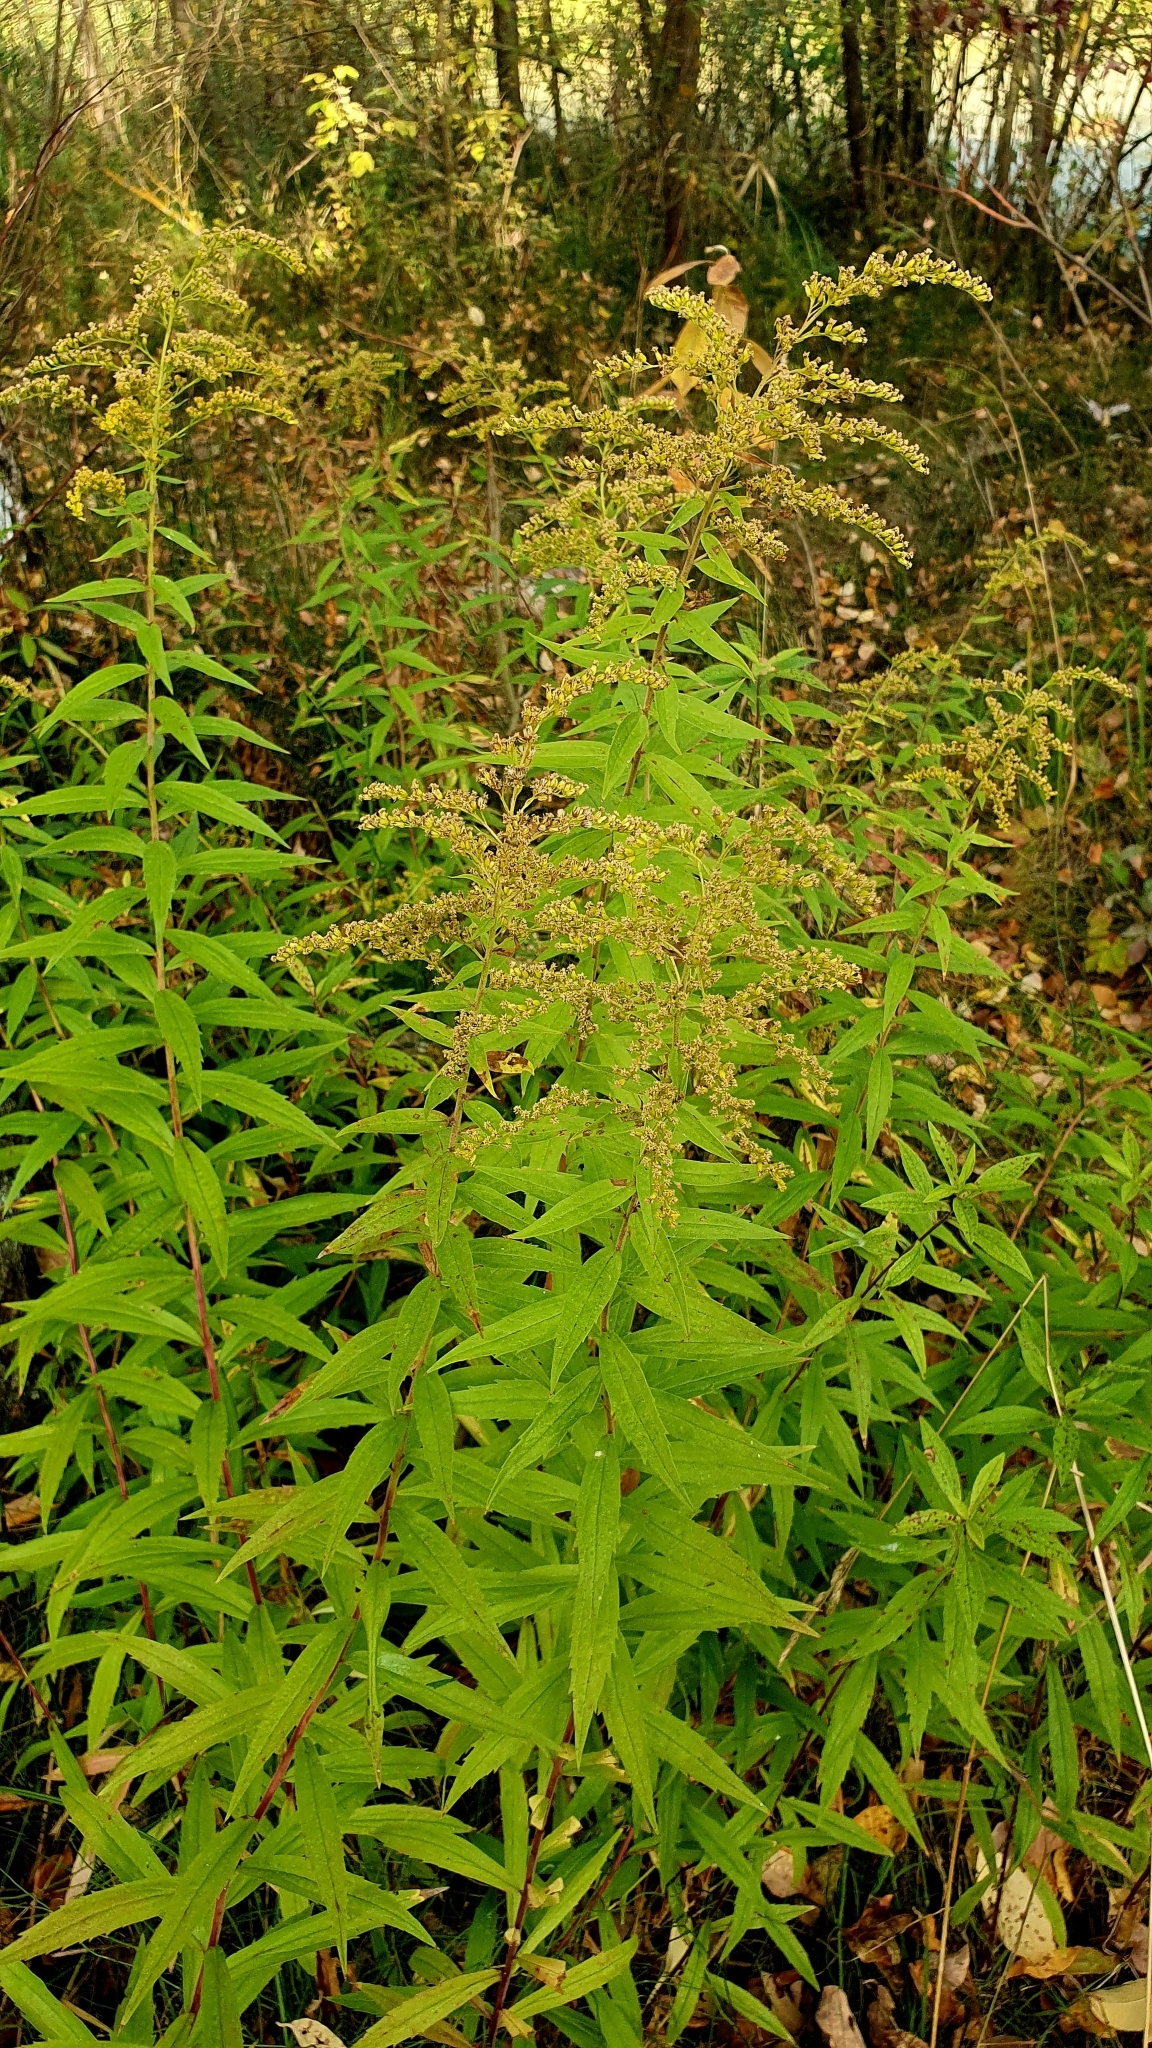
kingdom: Plantae
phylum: Tracheophyta
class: Magnoliopsida
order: Asterales
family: Asteraceae
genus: Solidago
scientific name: Solidago canadensis
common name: Canada goldenrod
